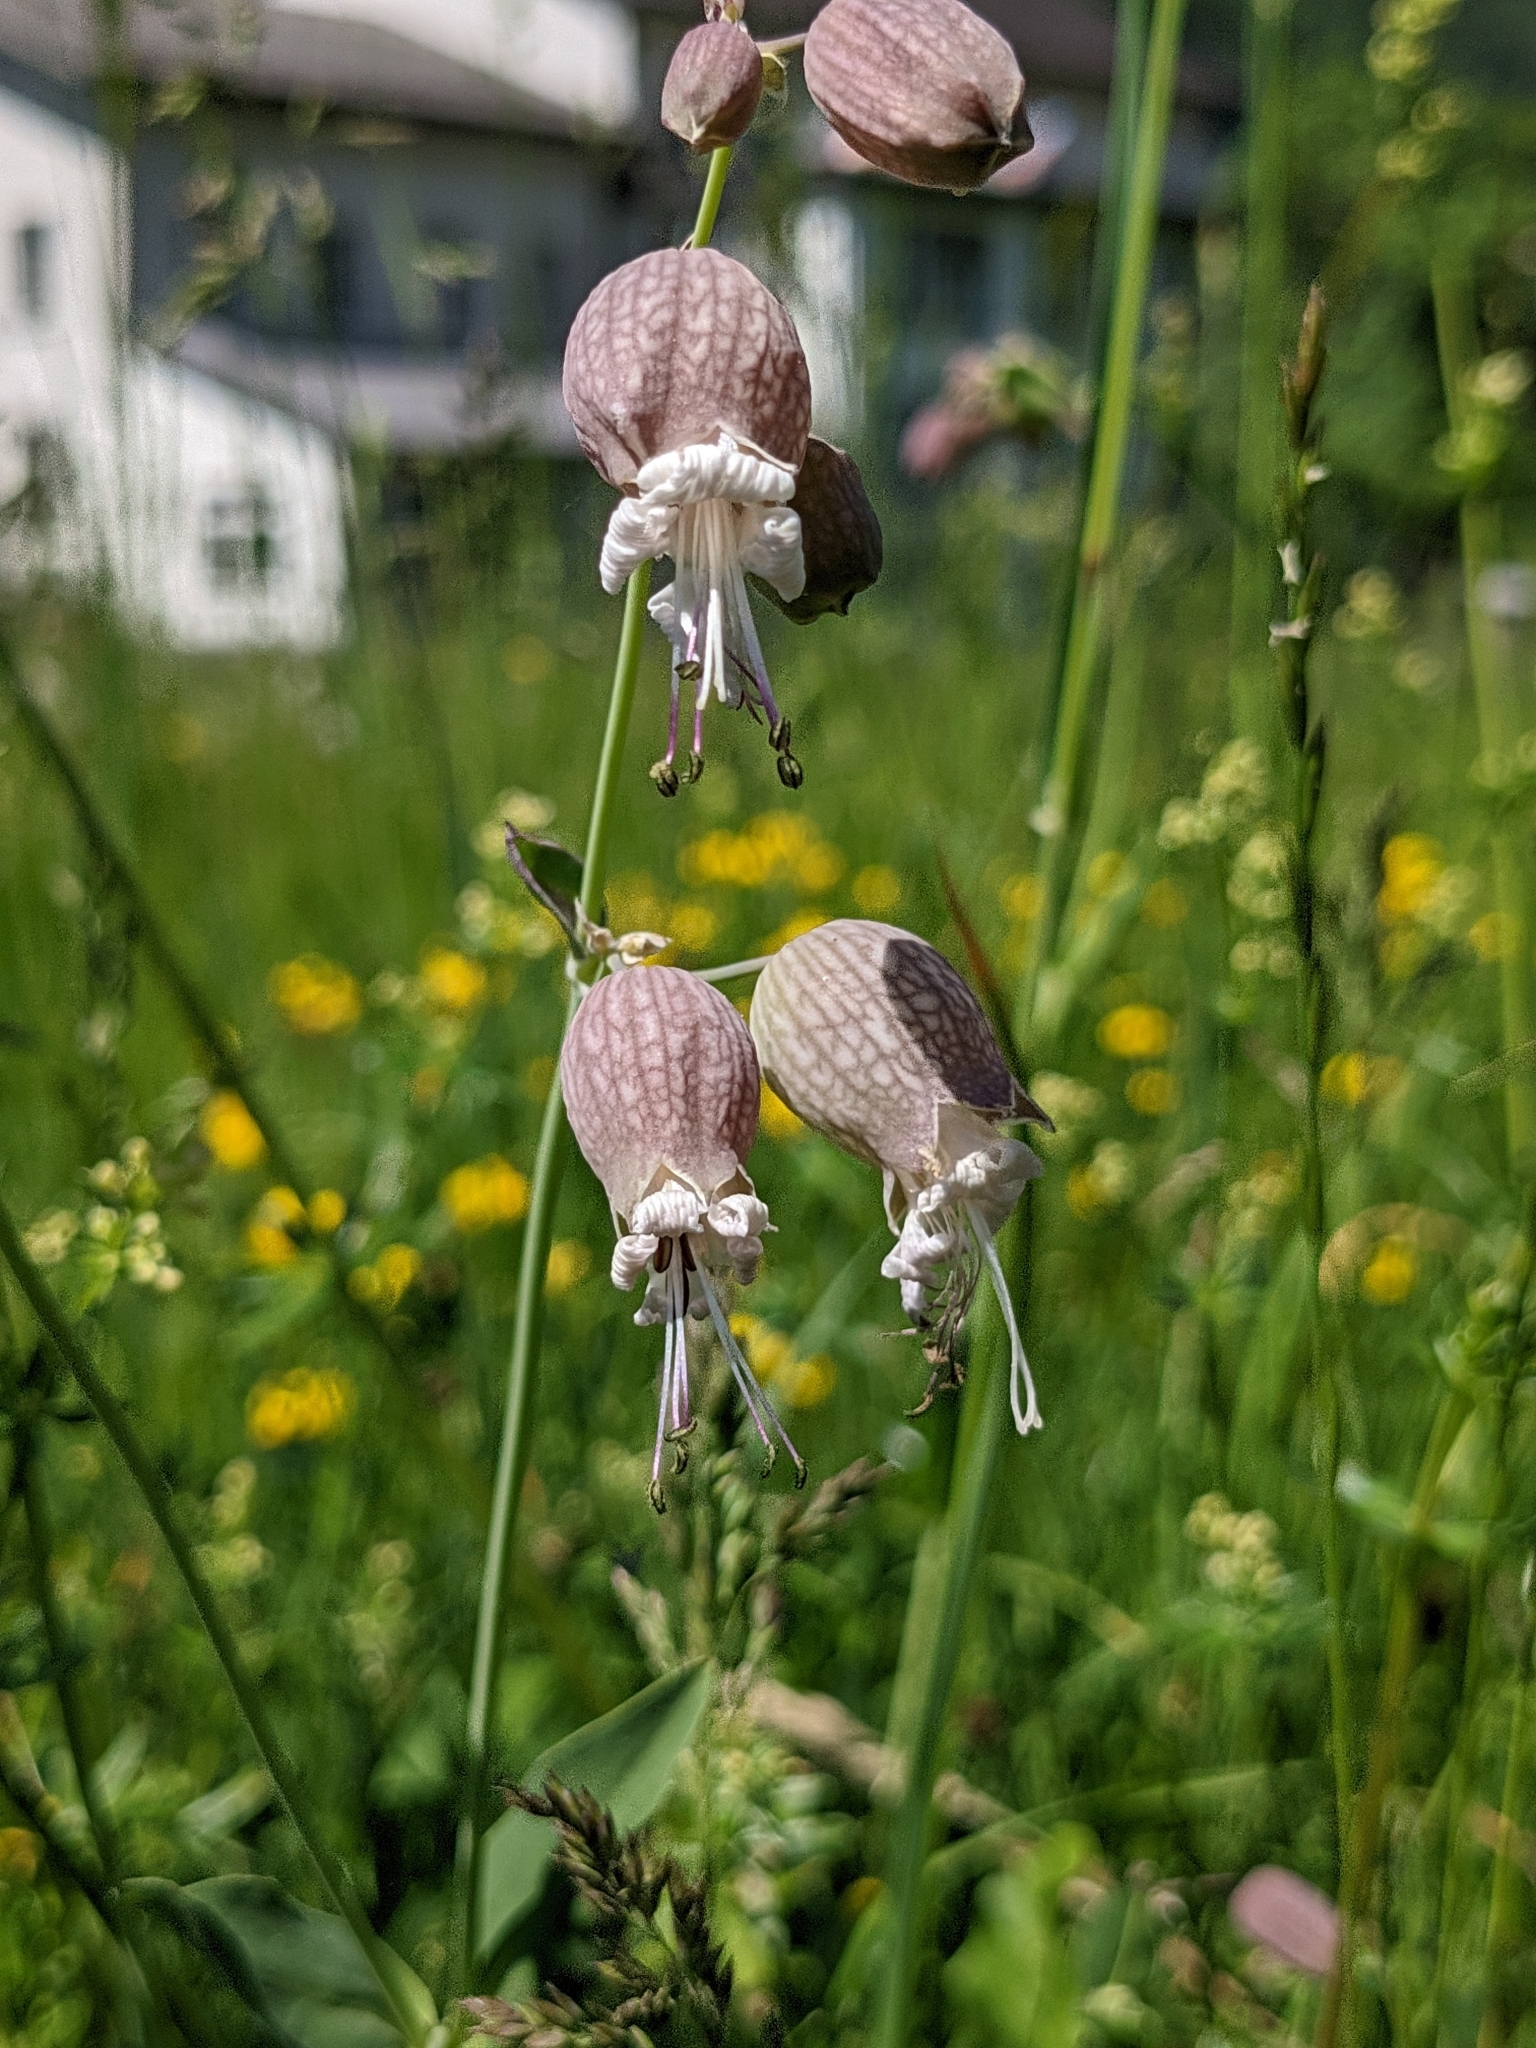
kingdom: Plantae
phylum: Tracheophyta
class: Magnoliopsida
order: Caryophyllales
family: Caryophyllaceae
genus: Silene
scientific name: Silene vulgaris
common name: Bladder campion
